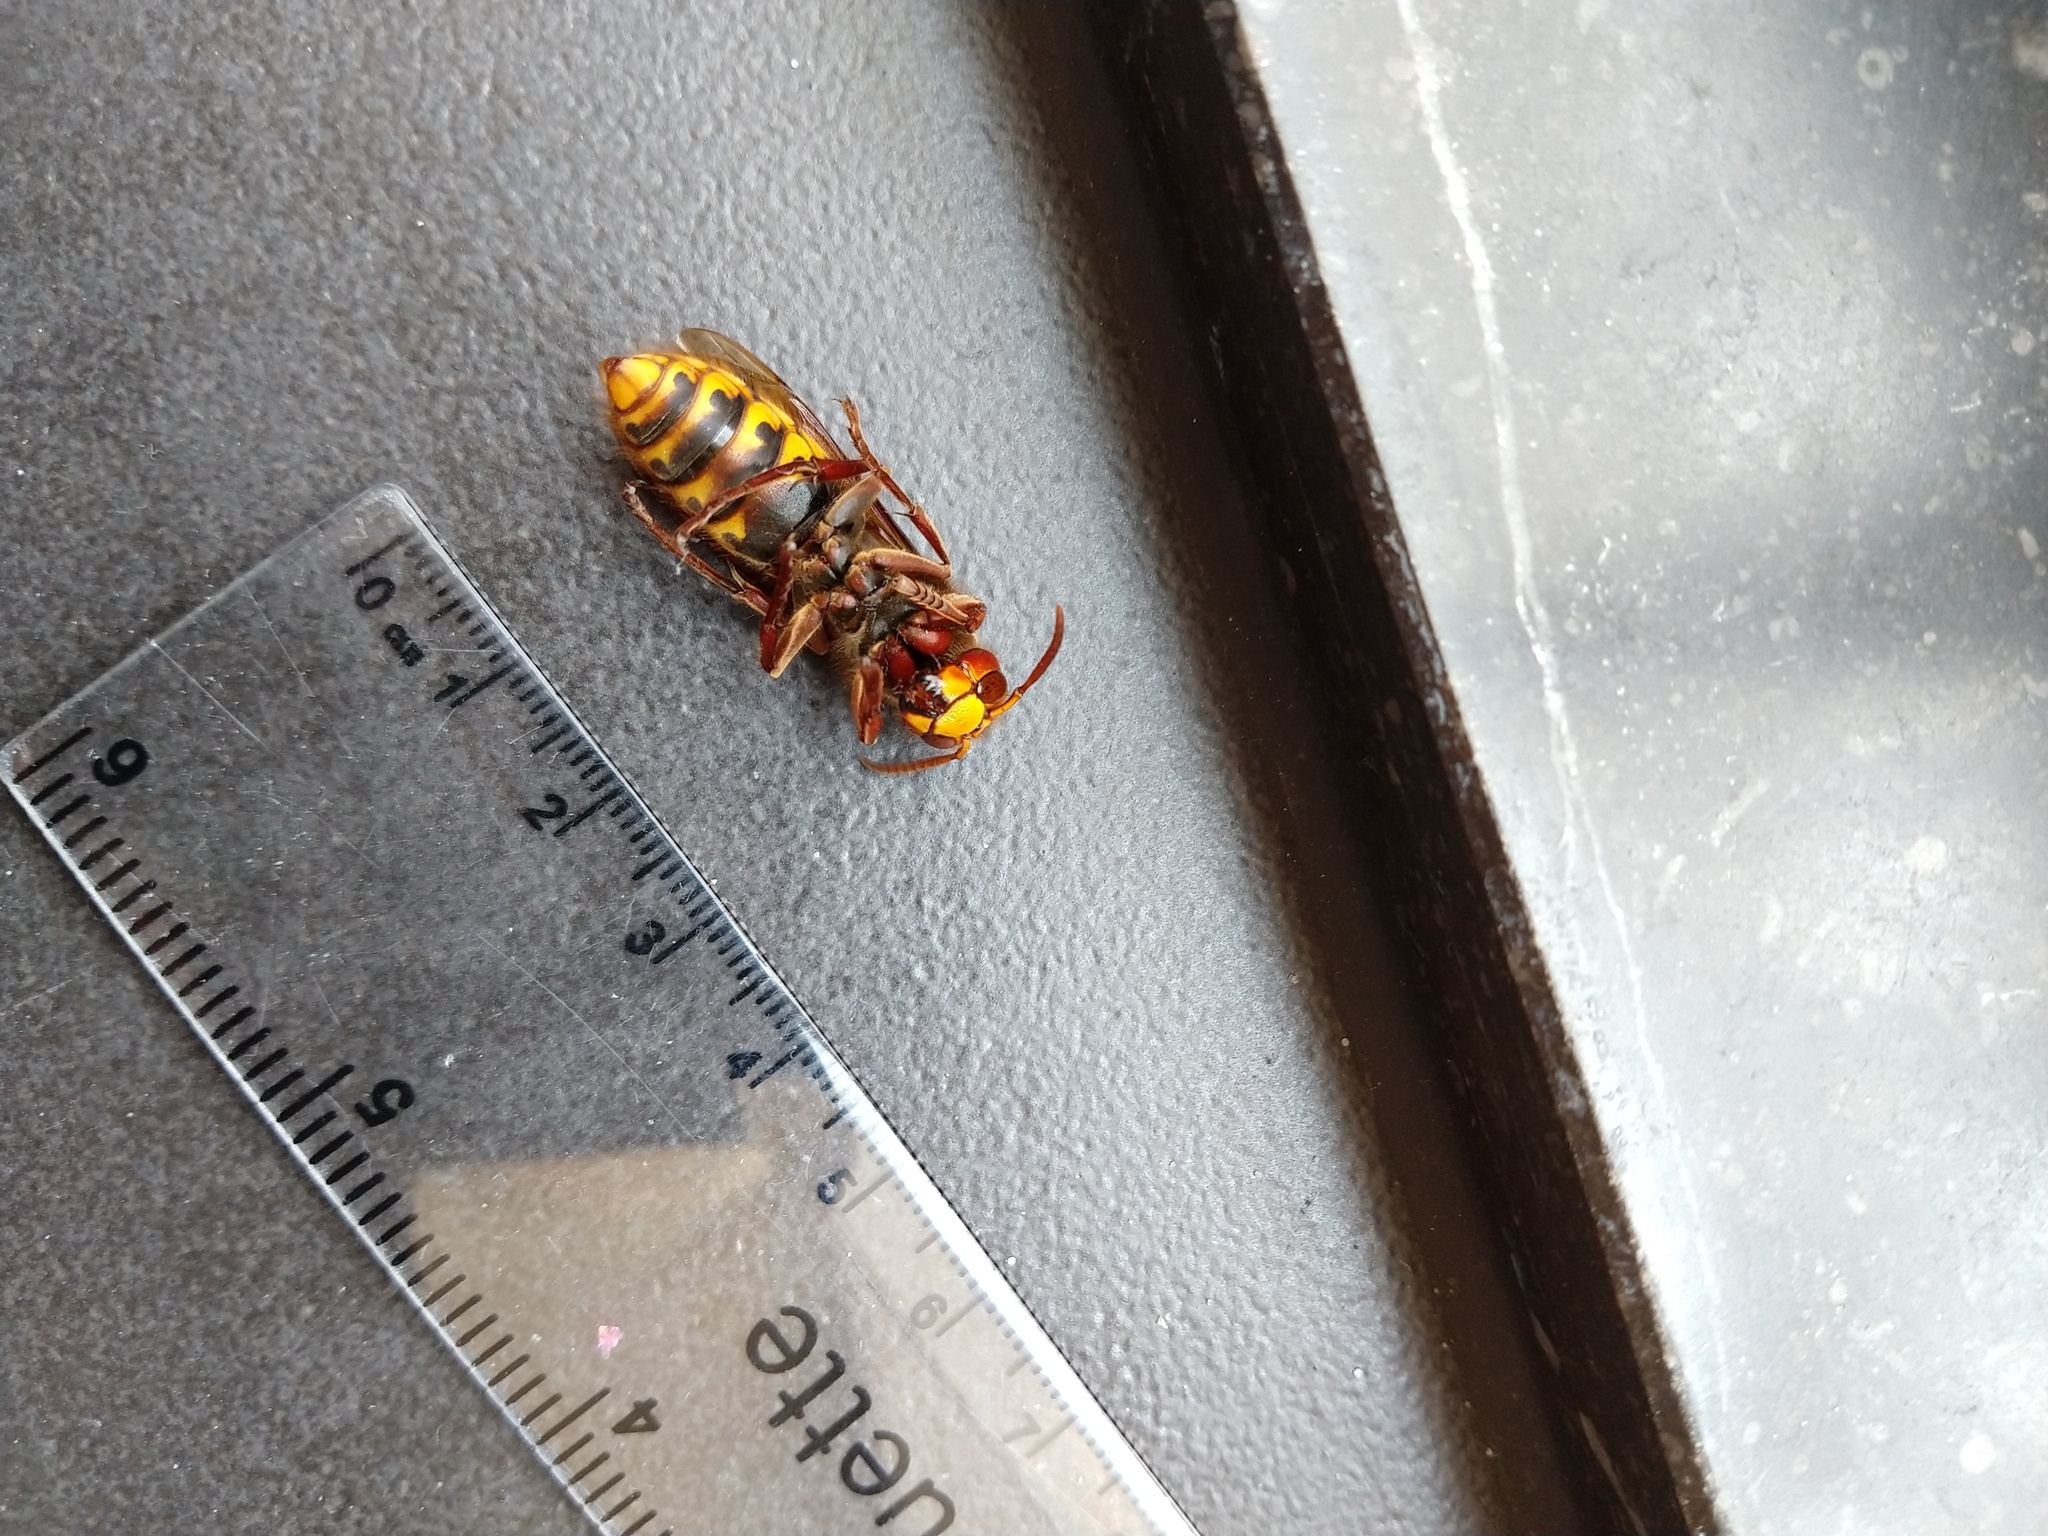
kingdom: Animalia
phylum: Arthropoda
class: Insecta
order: Hymenoptera
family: Vespidae
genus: Vespa
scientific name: Vespa crabro
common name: Hornet
